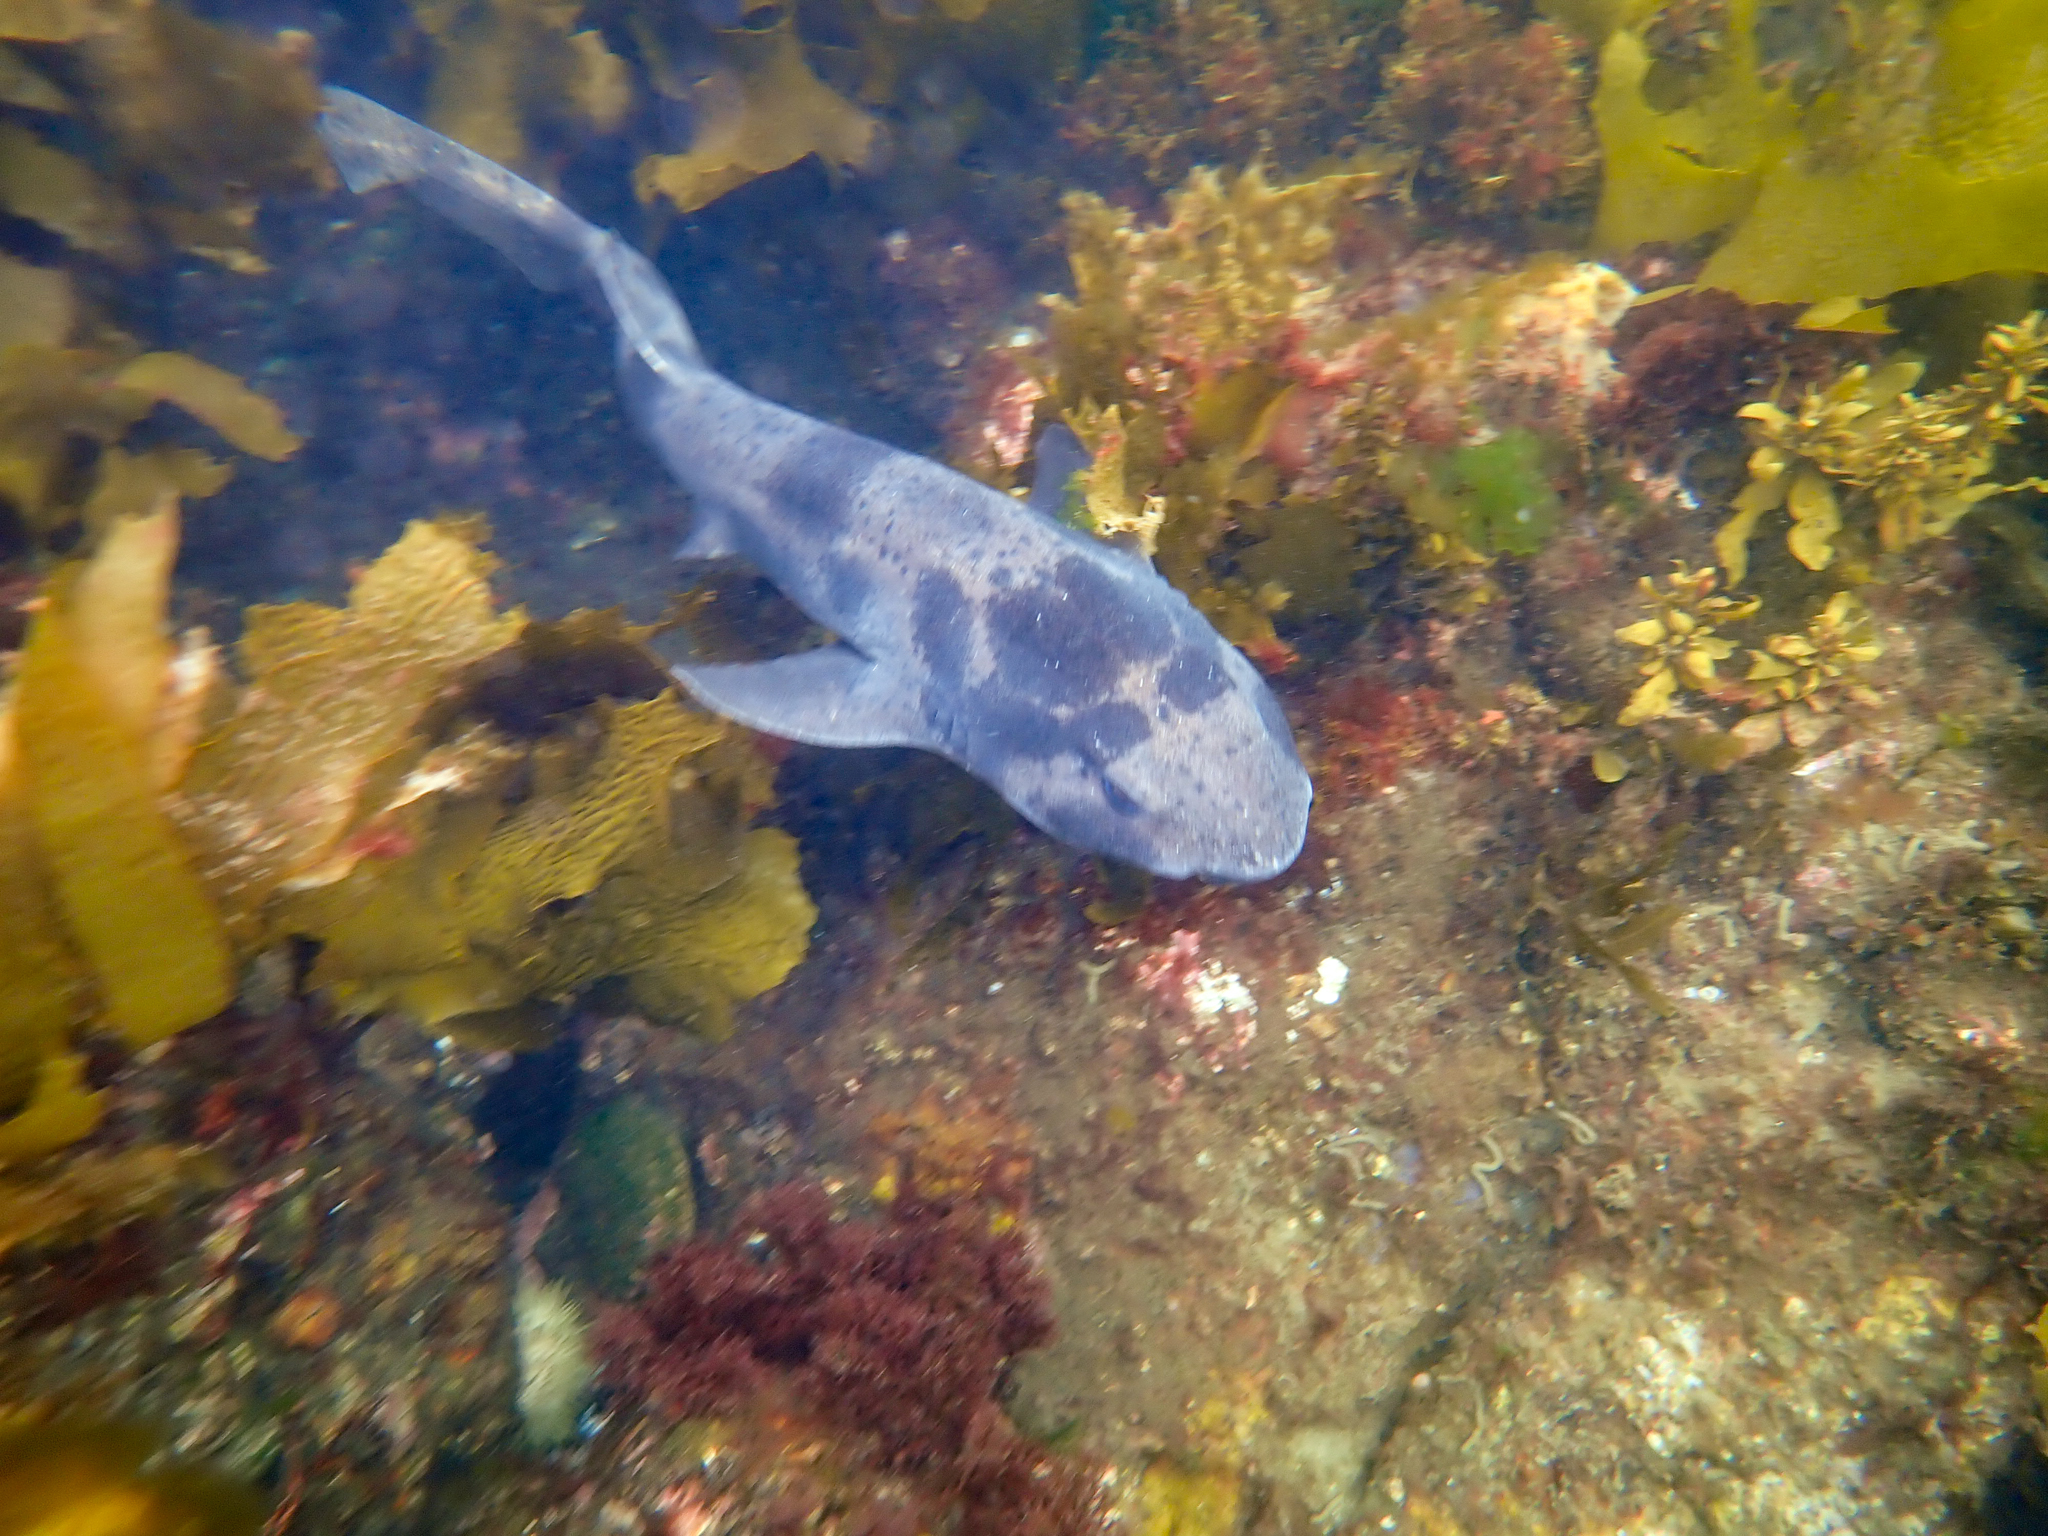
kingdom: Animalia
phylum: Chordata
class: Elasmobranchii
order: Carcharhiniformes
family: Scyliorhinidae
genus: Cephaloscyllium
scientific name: Cephaloscyllium laticeps
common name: Australian swellshark
